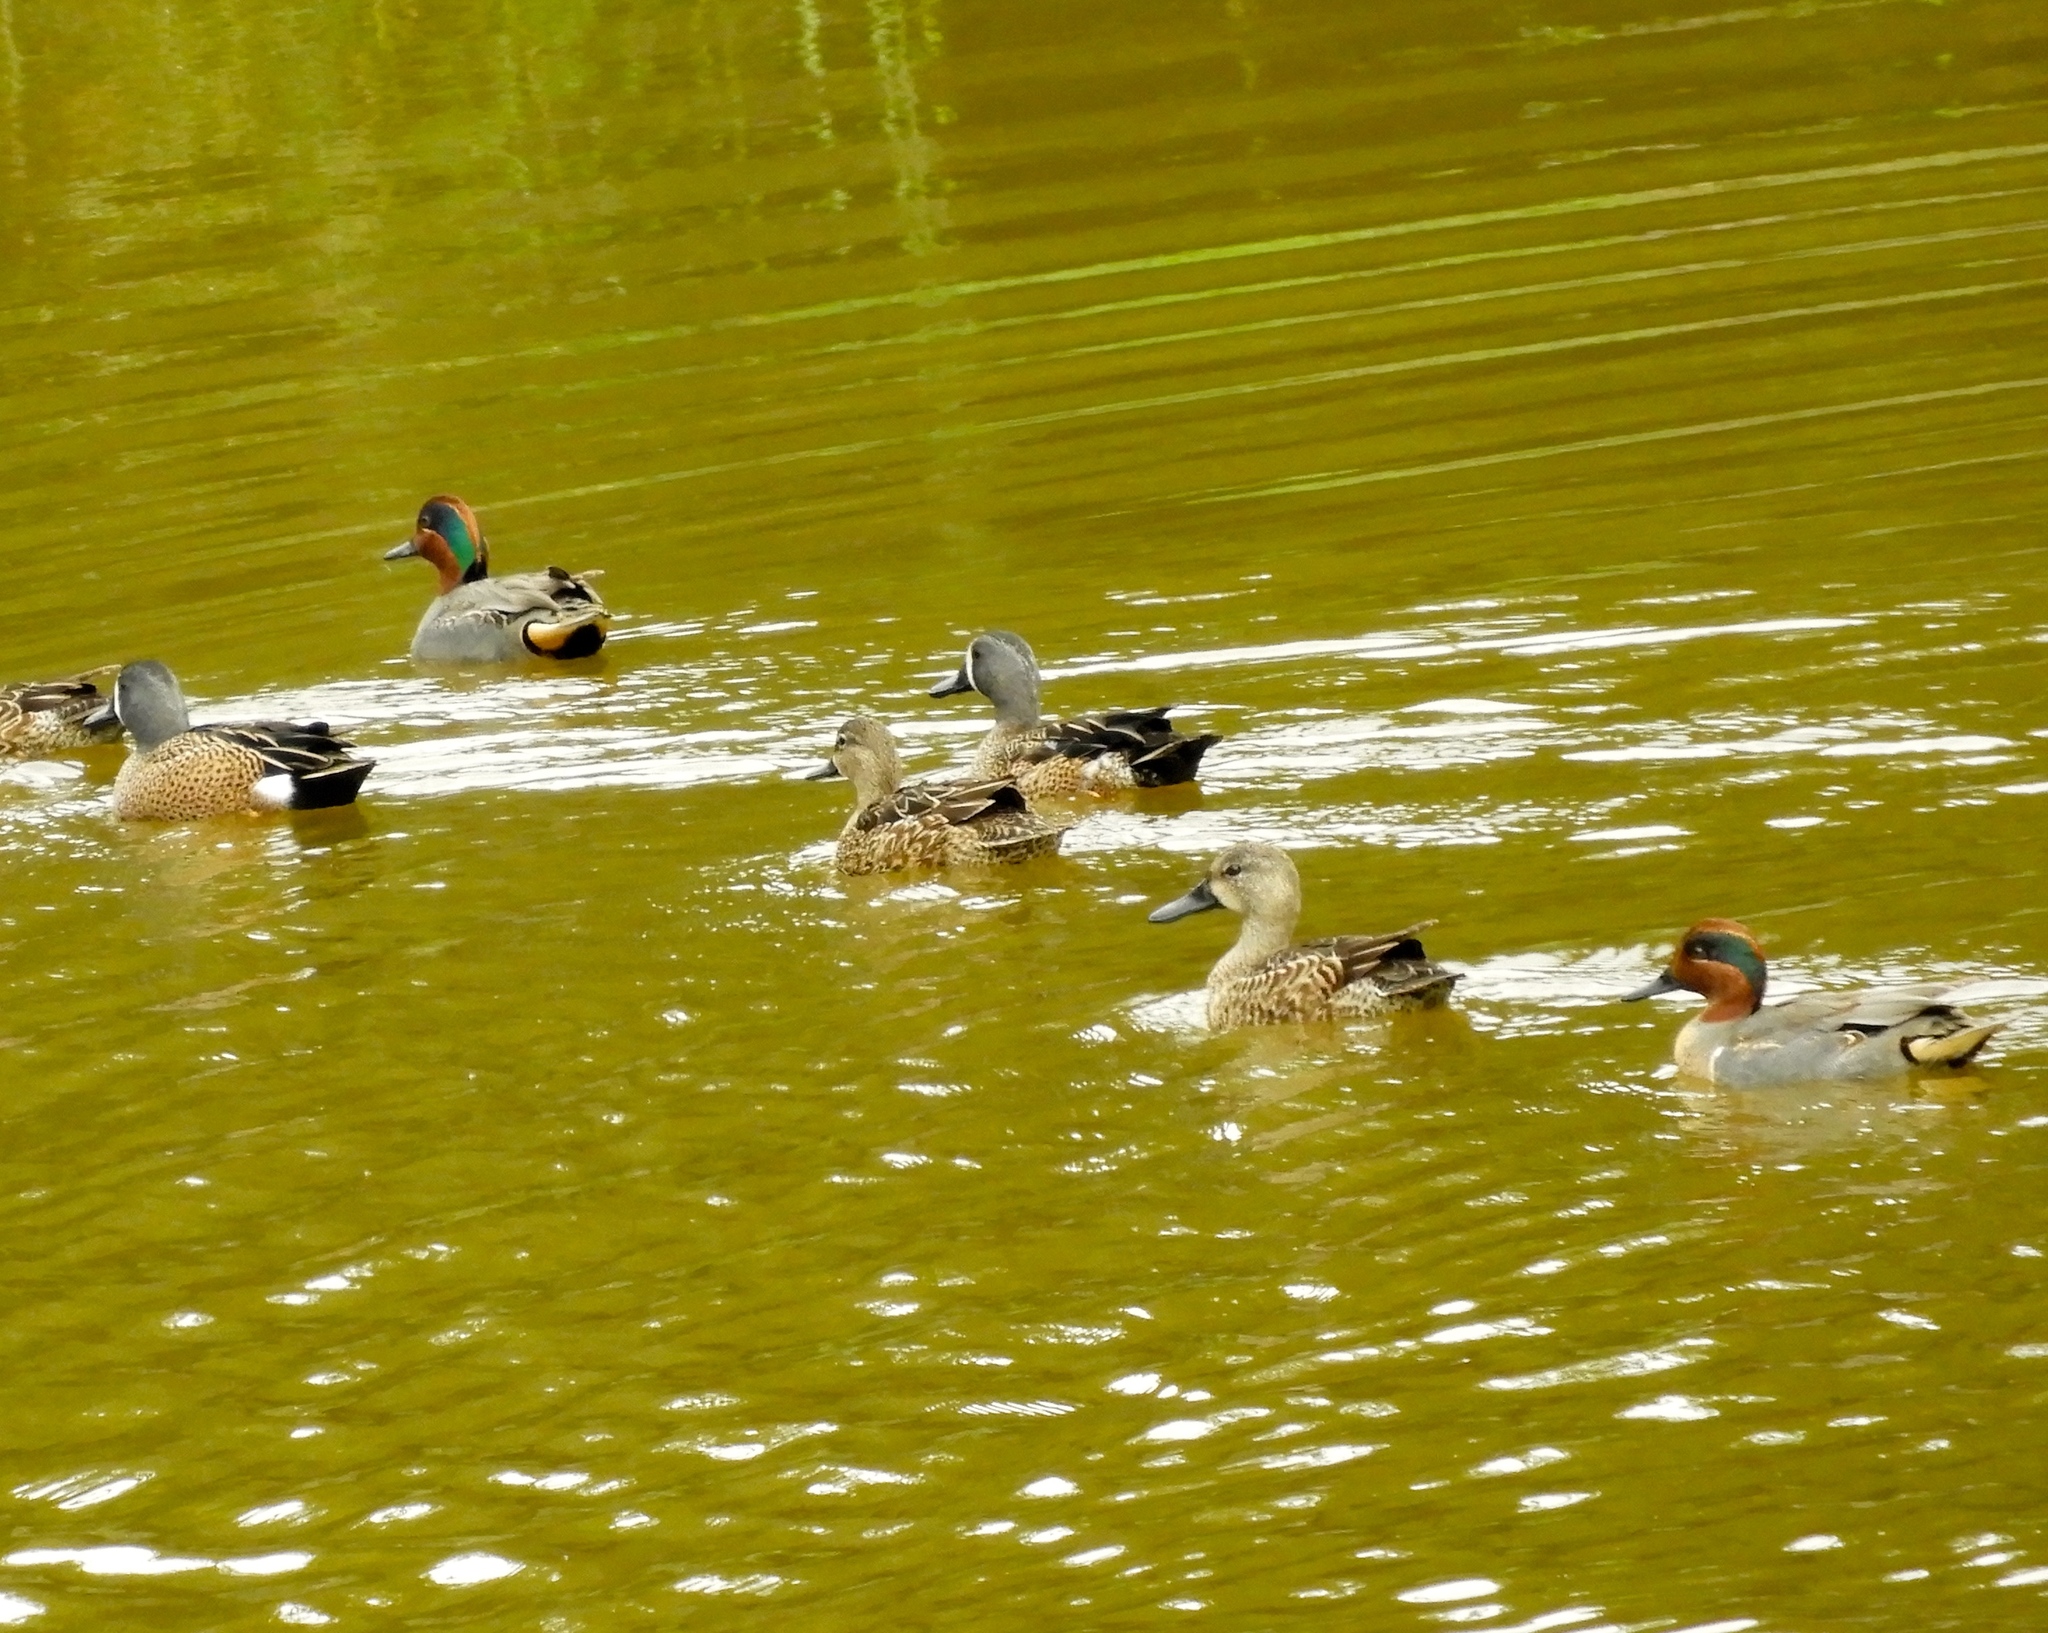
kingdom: Animalia
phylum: Chordata
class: Aves
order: Anseriformes
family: Anatidae
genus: Spatula
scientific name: Spatula discors
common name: Blue-winged teal
